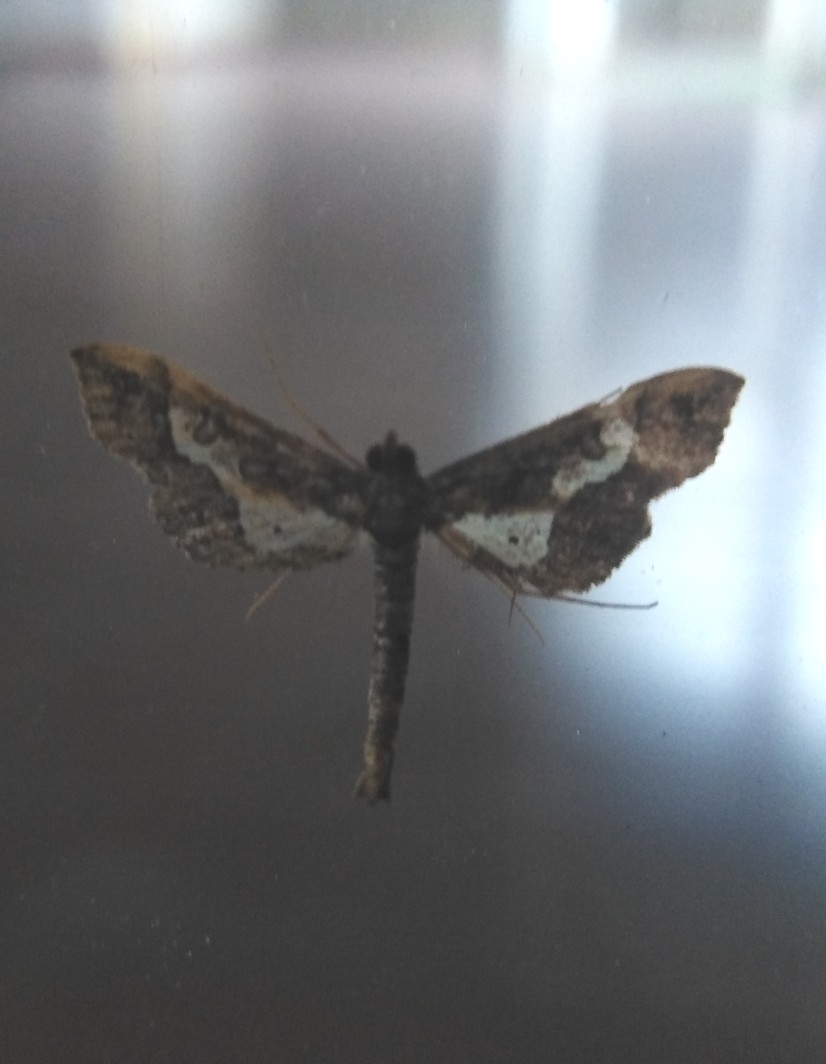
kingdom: Animalia
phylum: Arthropoda
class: Insecta
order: Lepidoptera
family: Crambidae
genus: Hydriris
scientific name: Hydriris ornatalis
